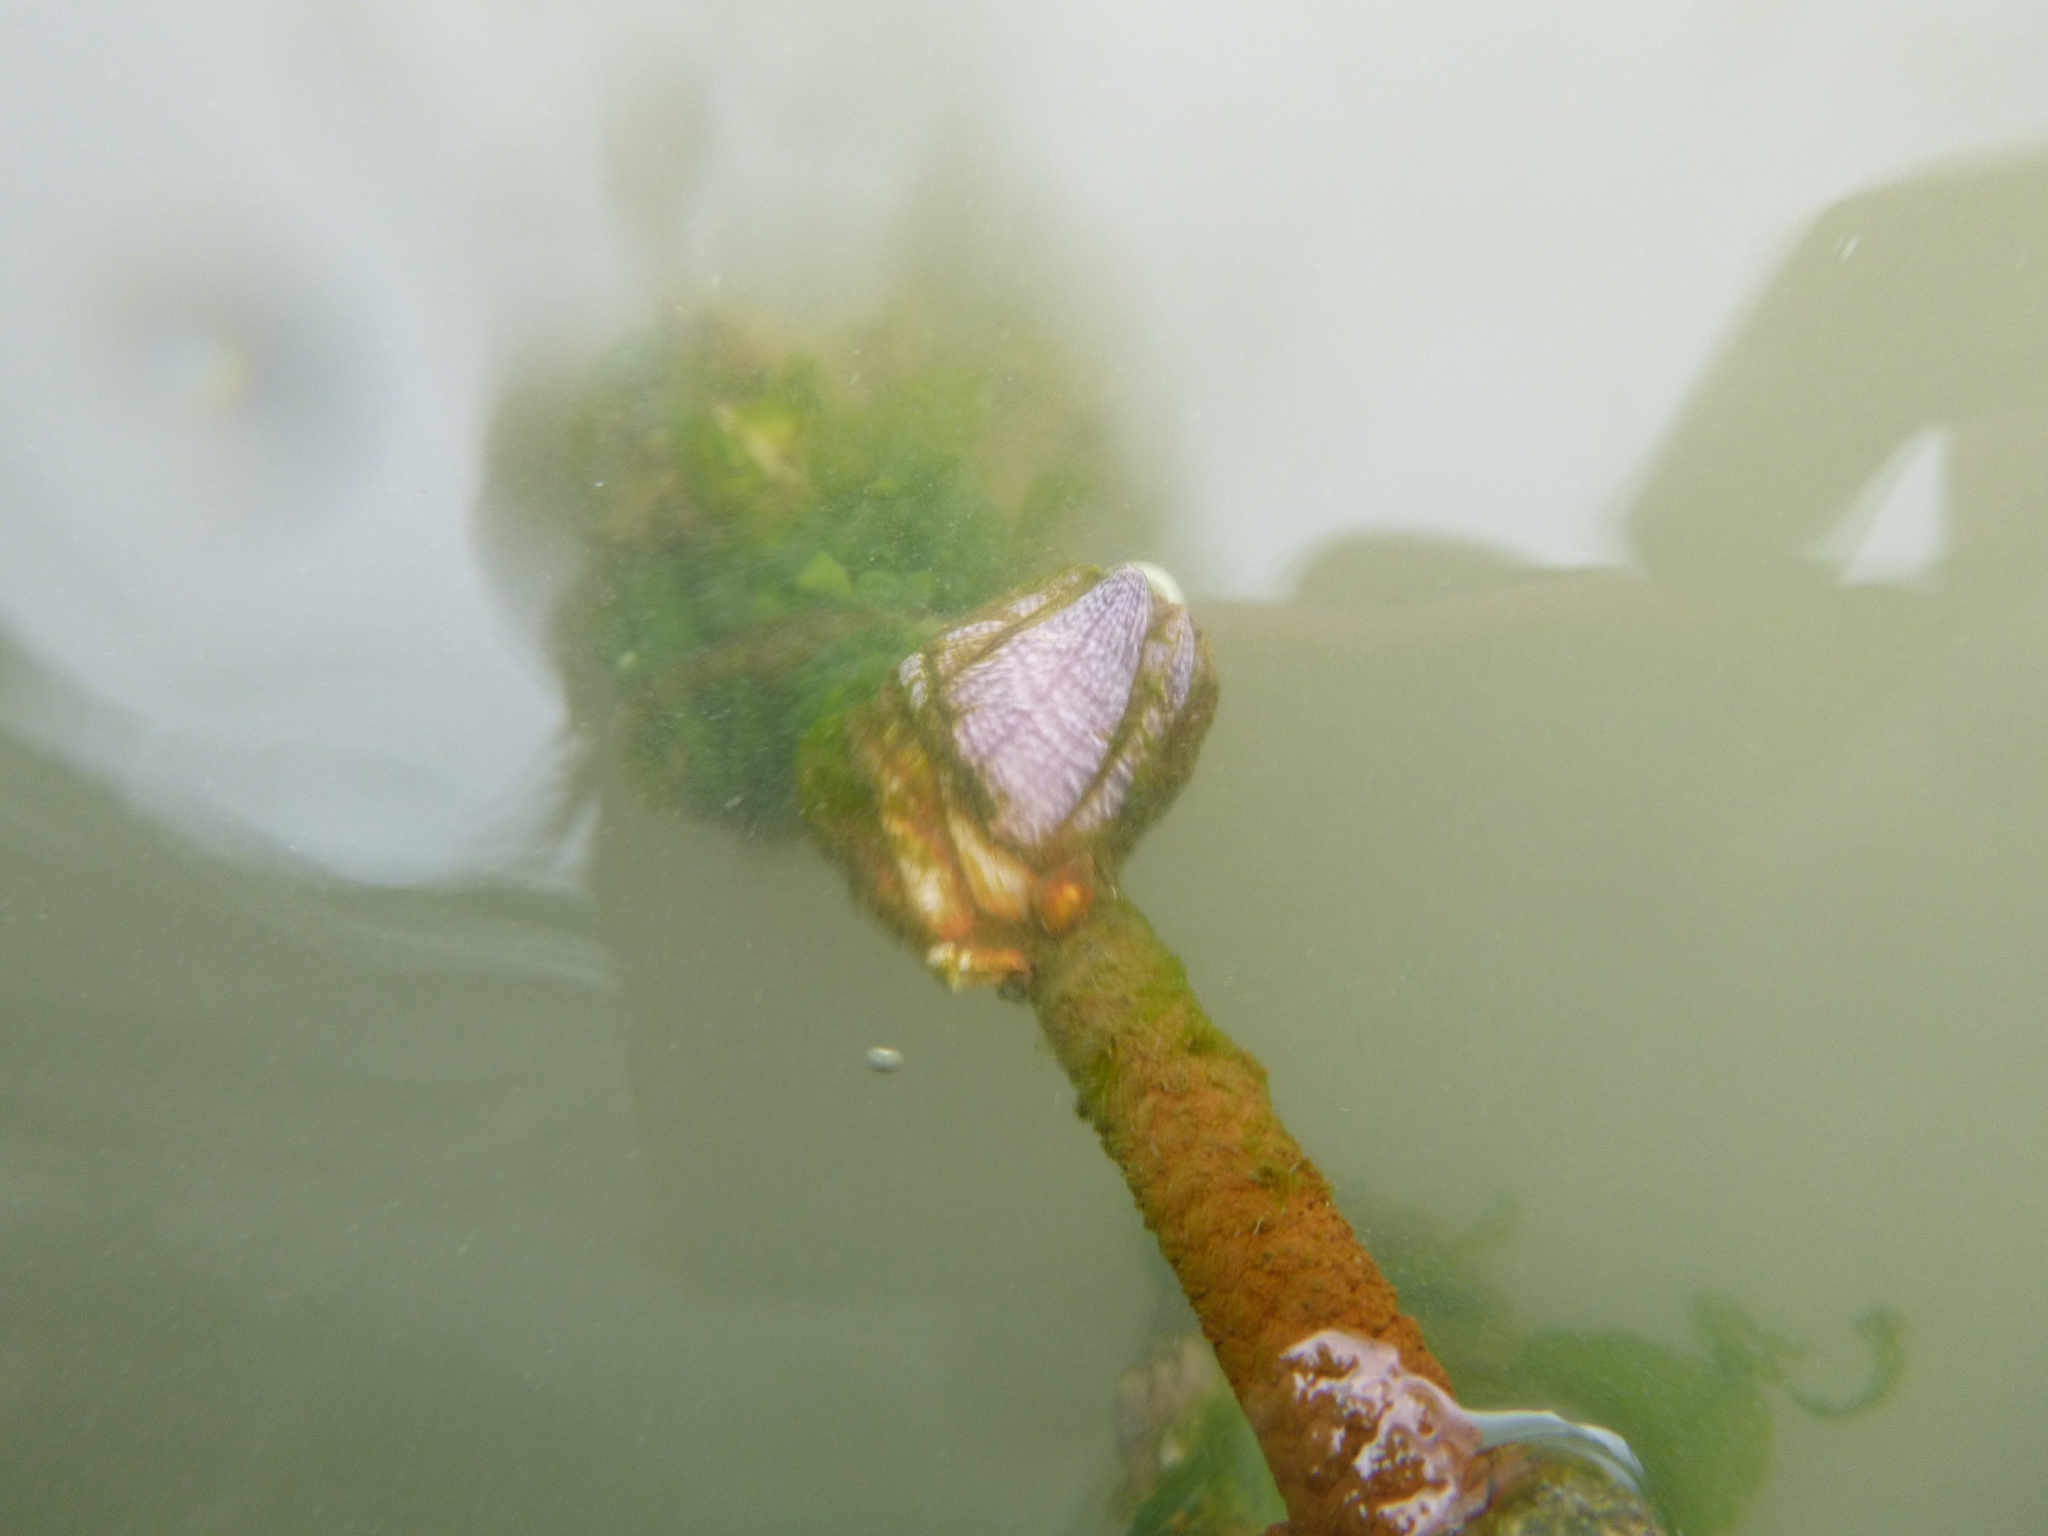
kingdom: Animalia
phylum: Arthropoda
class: Maxillopoda
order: Sessilia
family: Balanidae
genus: Fistulobalanus
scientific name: Fistulobalanus kondakovi
